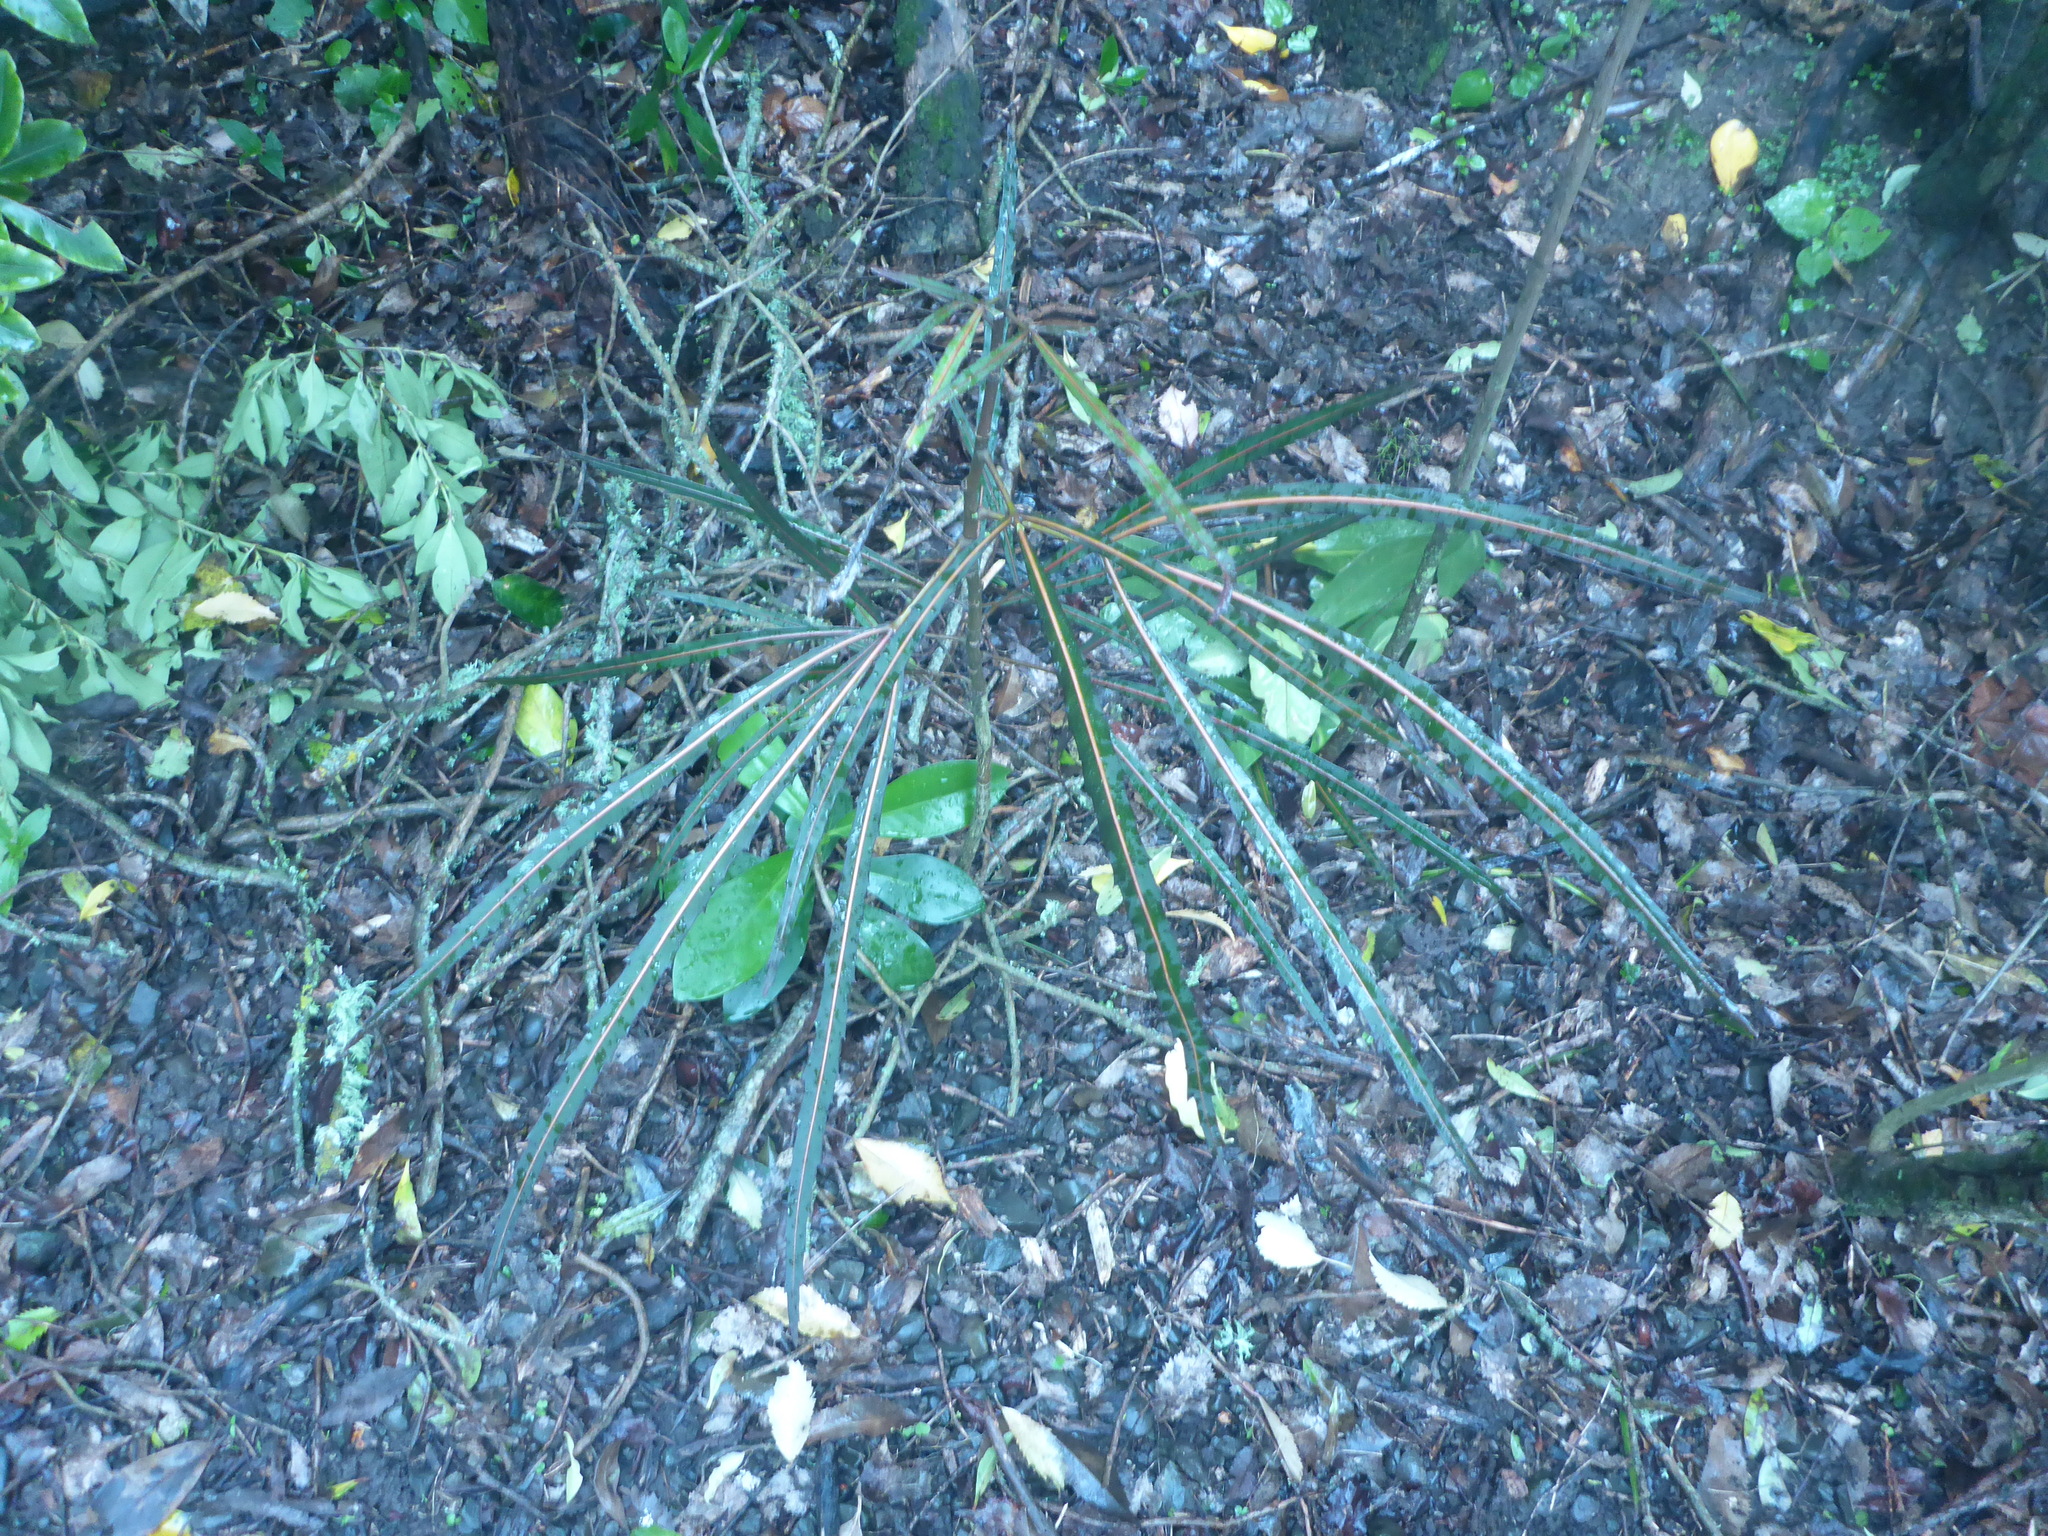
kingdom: Plantae
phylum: Tracheophyta
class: Magnoliopsida
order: Apiales
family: Araliaceae
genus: Pseudopanax
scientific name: Pseudopanax
